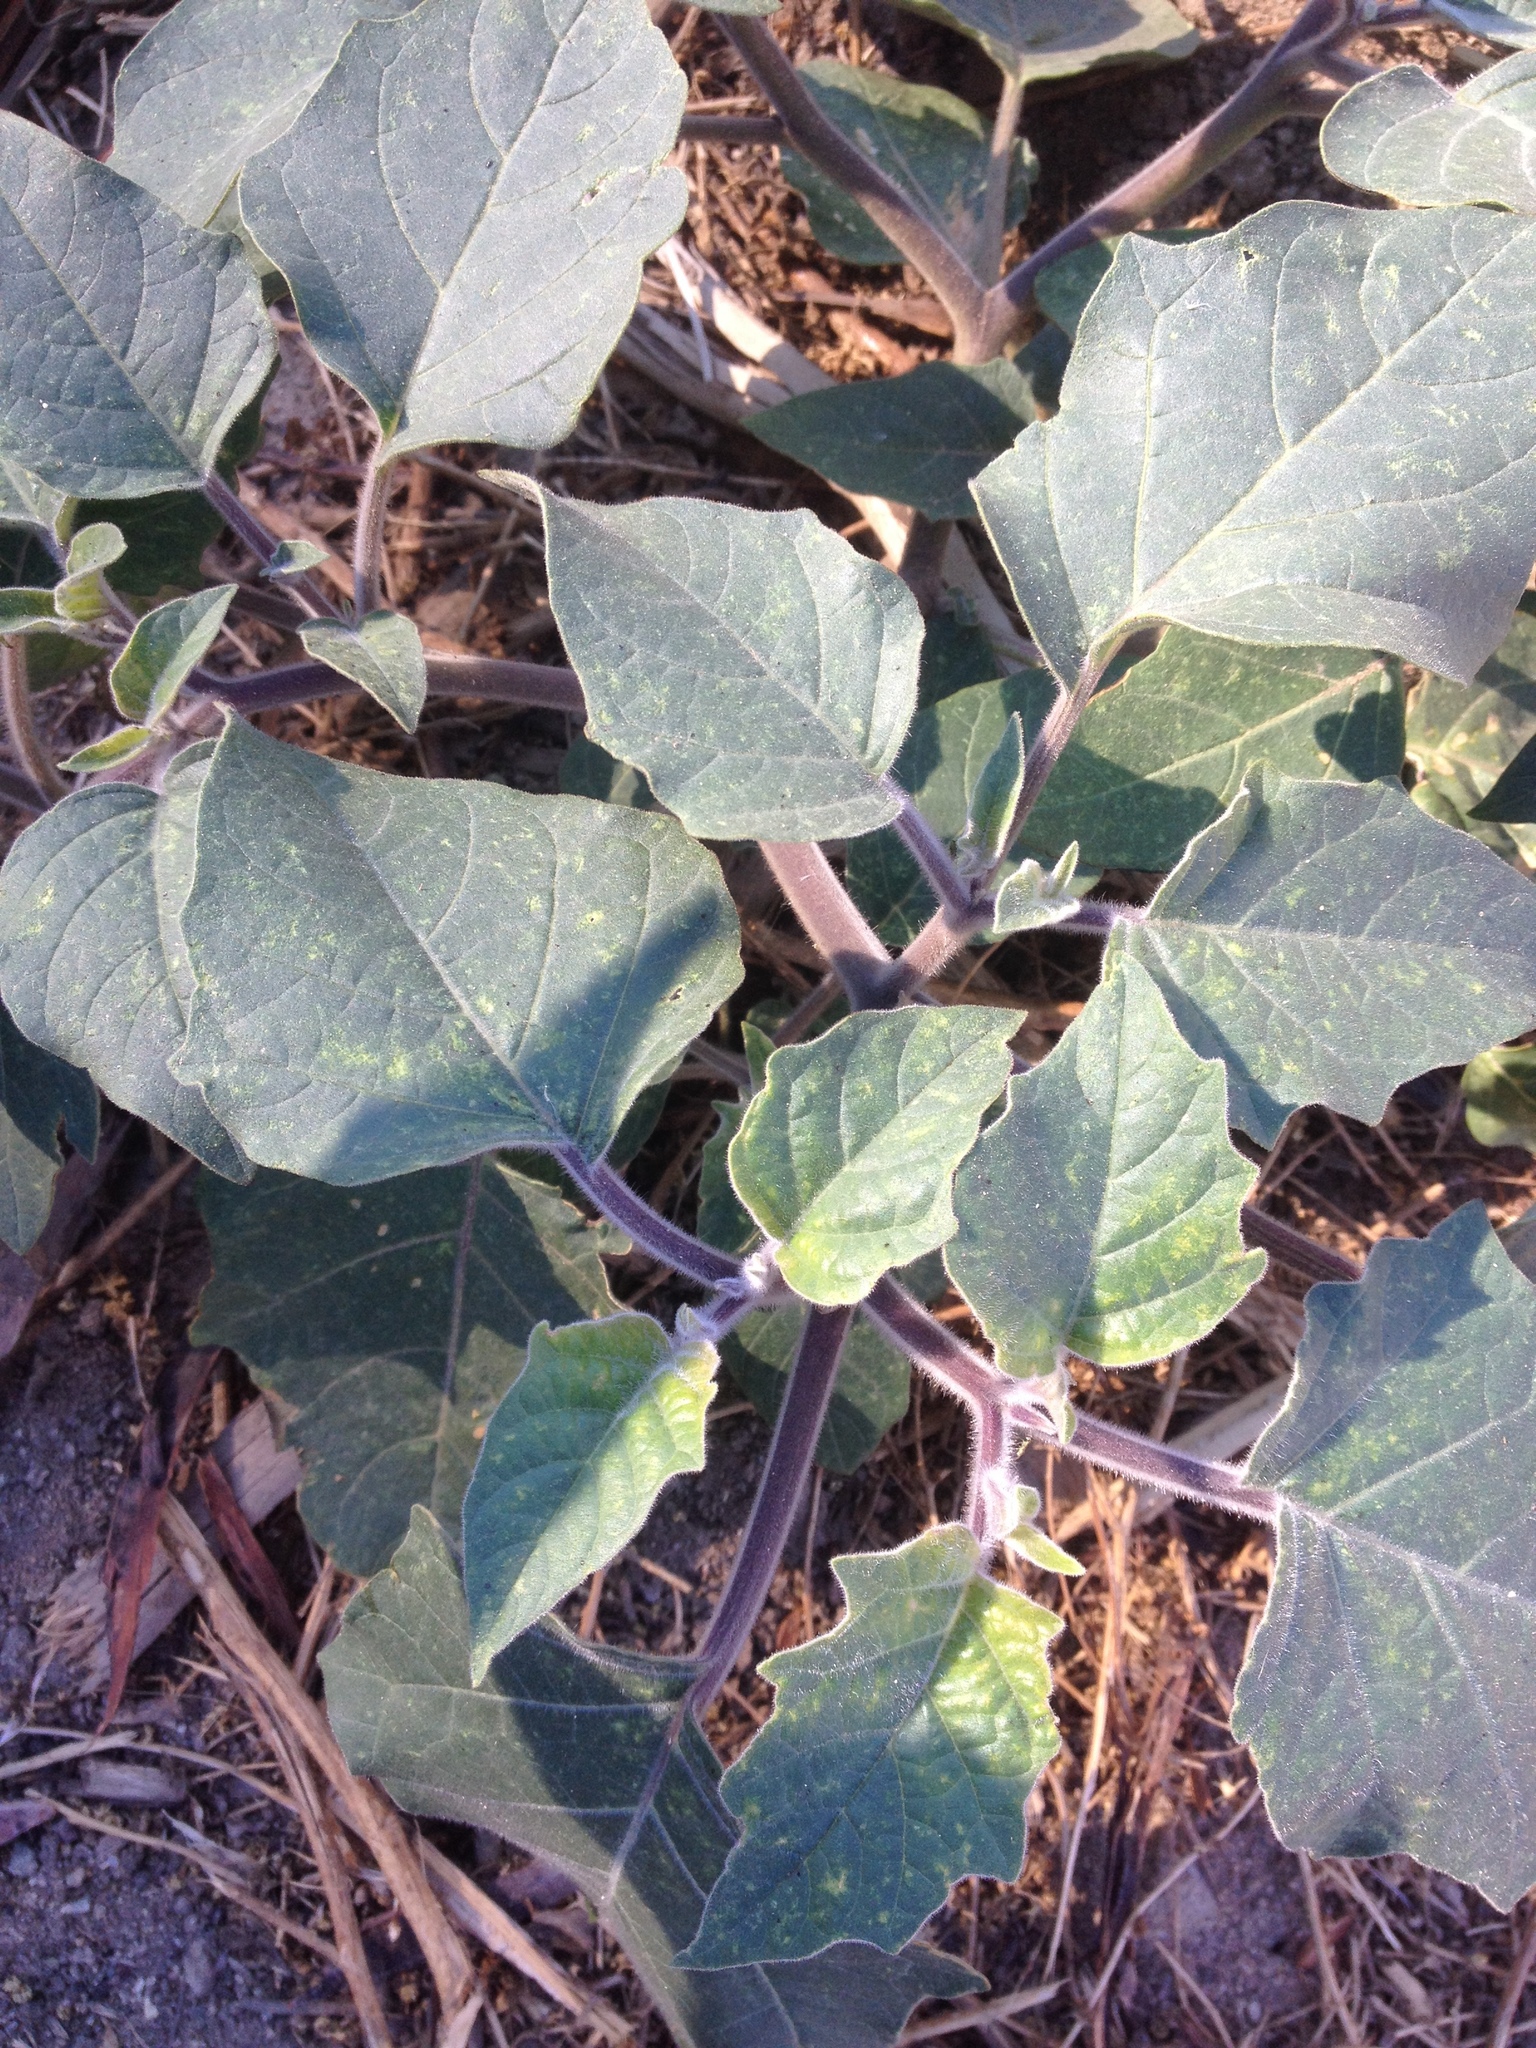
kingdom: Plantae
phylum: Tracheophyta
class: Magnoliopsida
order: Solanales
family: Solanaceae
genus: Datura
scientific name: Datura wrightii
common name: Sacred thorn-apple
